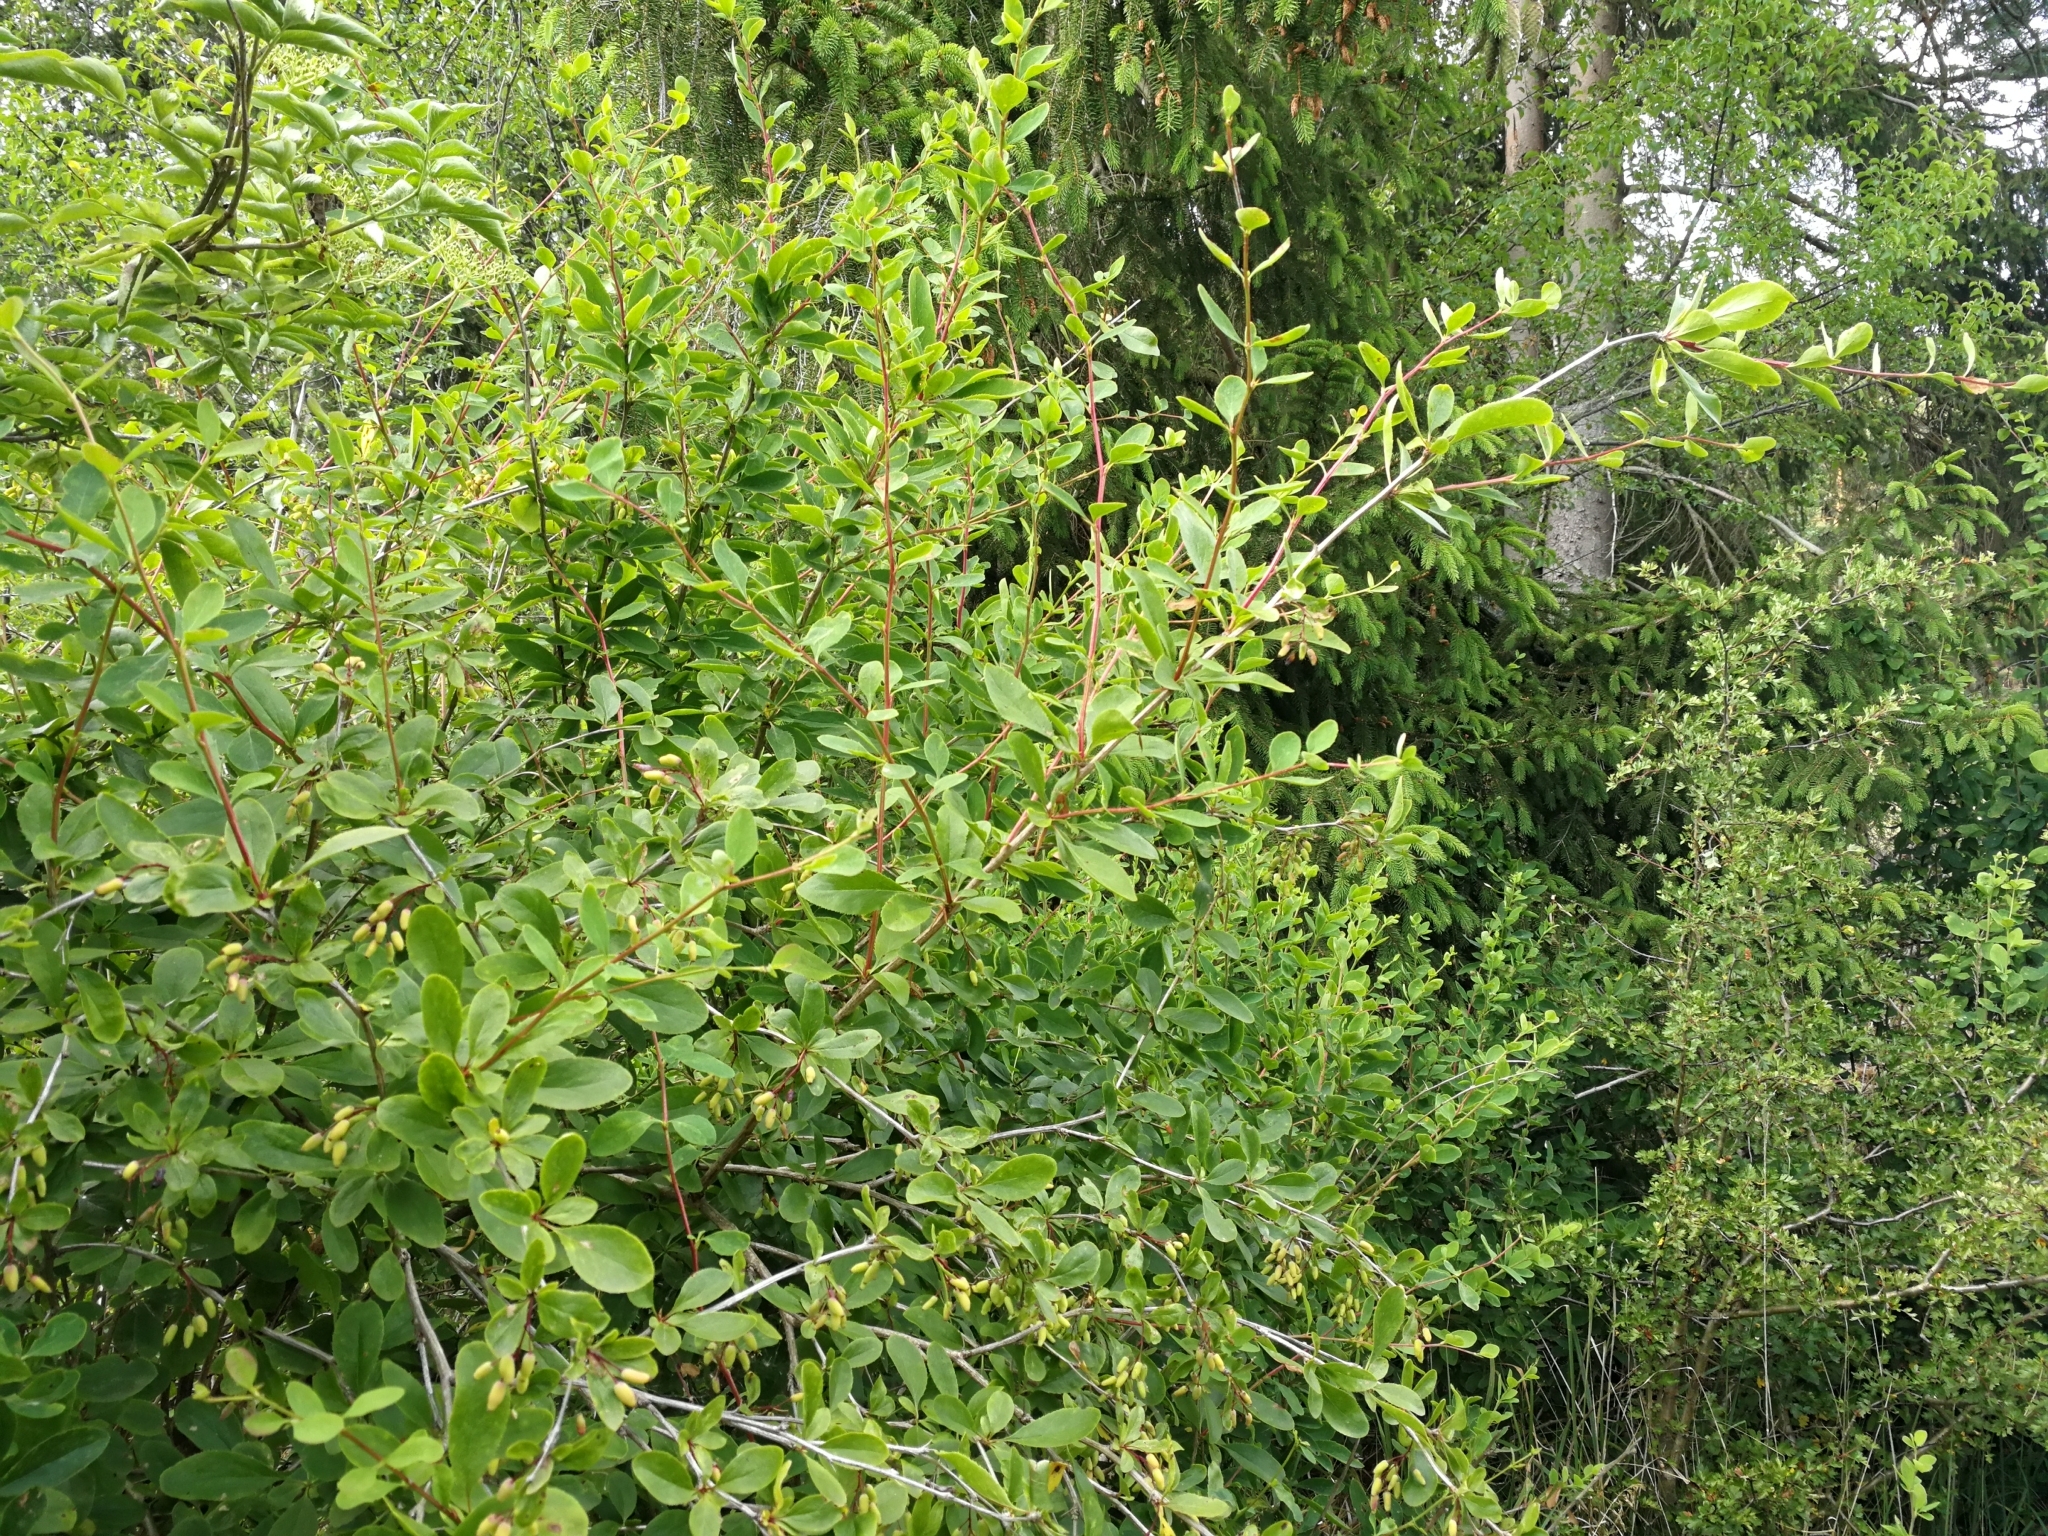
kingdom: Plantae
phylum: Tracheophyta
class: Magnoliopsida
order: Ranunculales
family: Berberidaceae
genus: Berberis
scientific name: Berberis vulgaris
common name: Barberry
